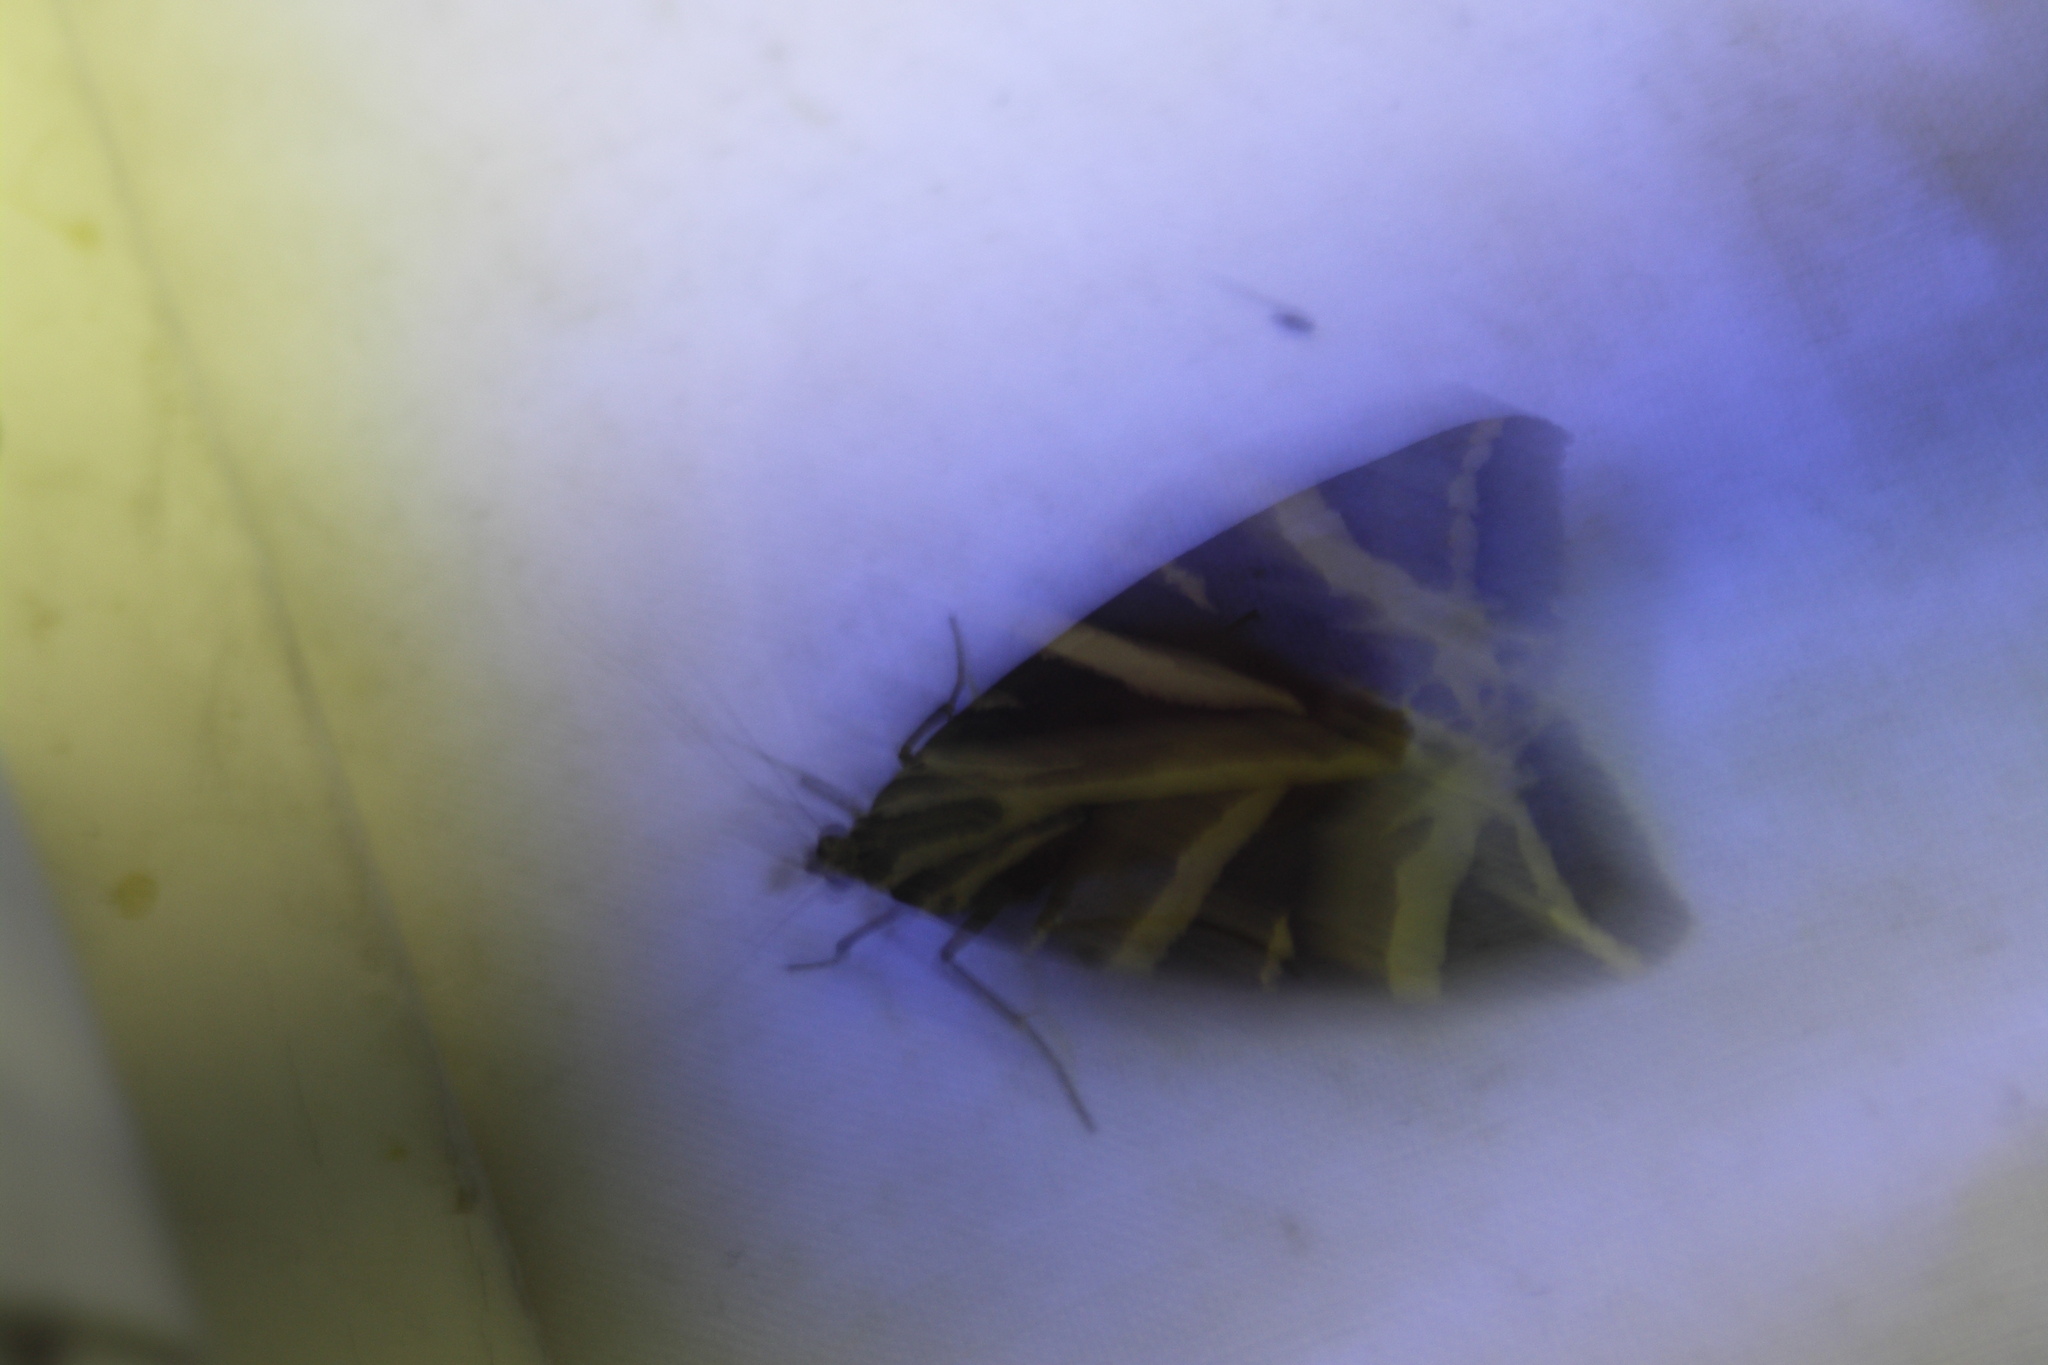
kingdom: Animalia
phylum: Arthropoda
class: Insecta
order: Lepidoptera
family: Erebidae
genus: Euplagia
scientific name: Euplagia quadripunctaria
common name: Jersey tiger
